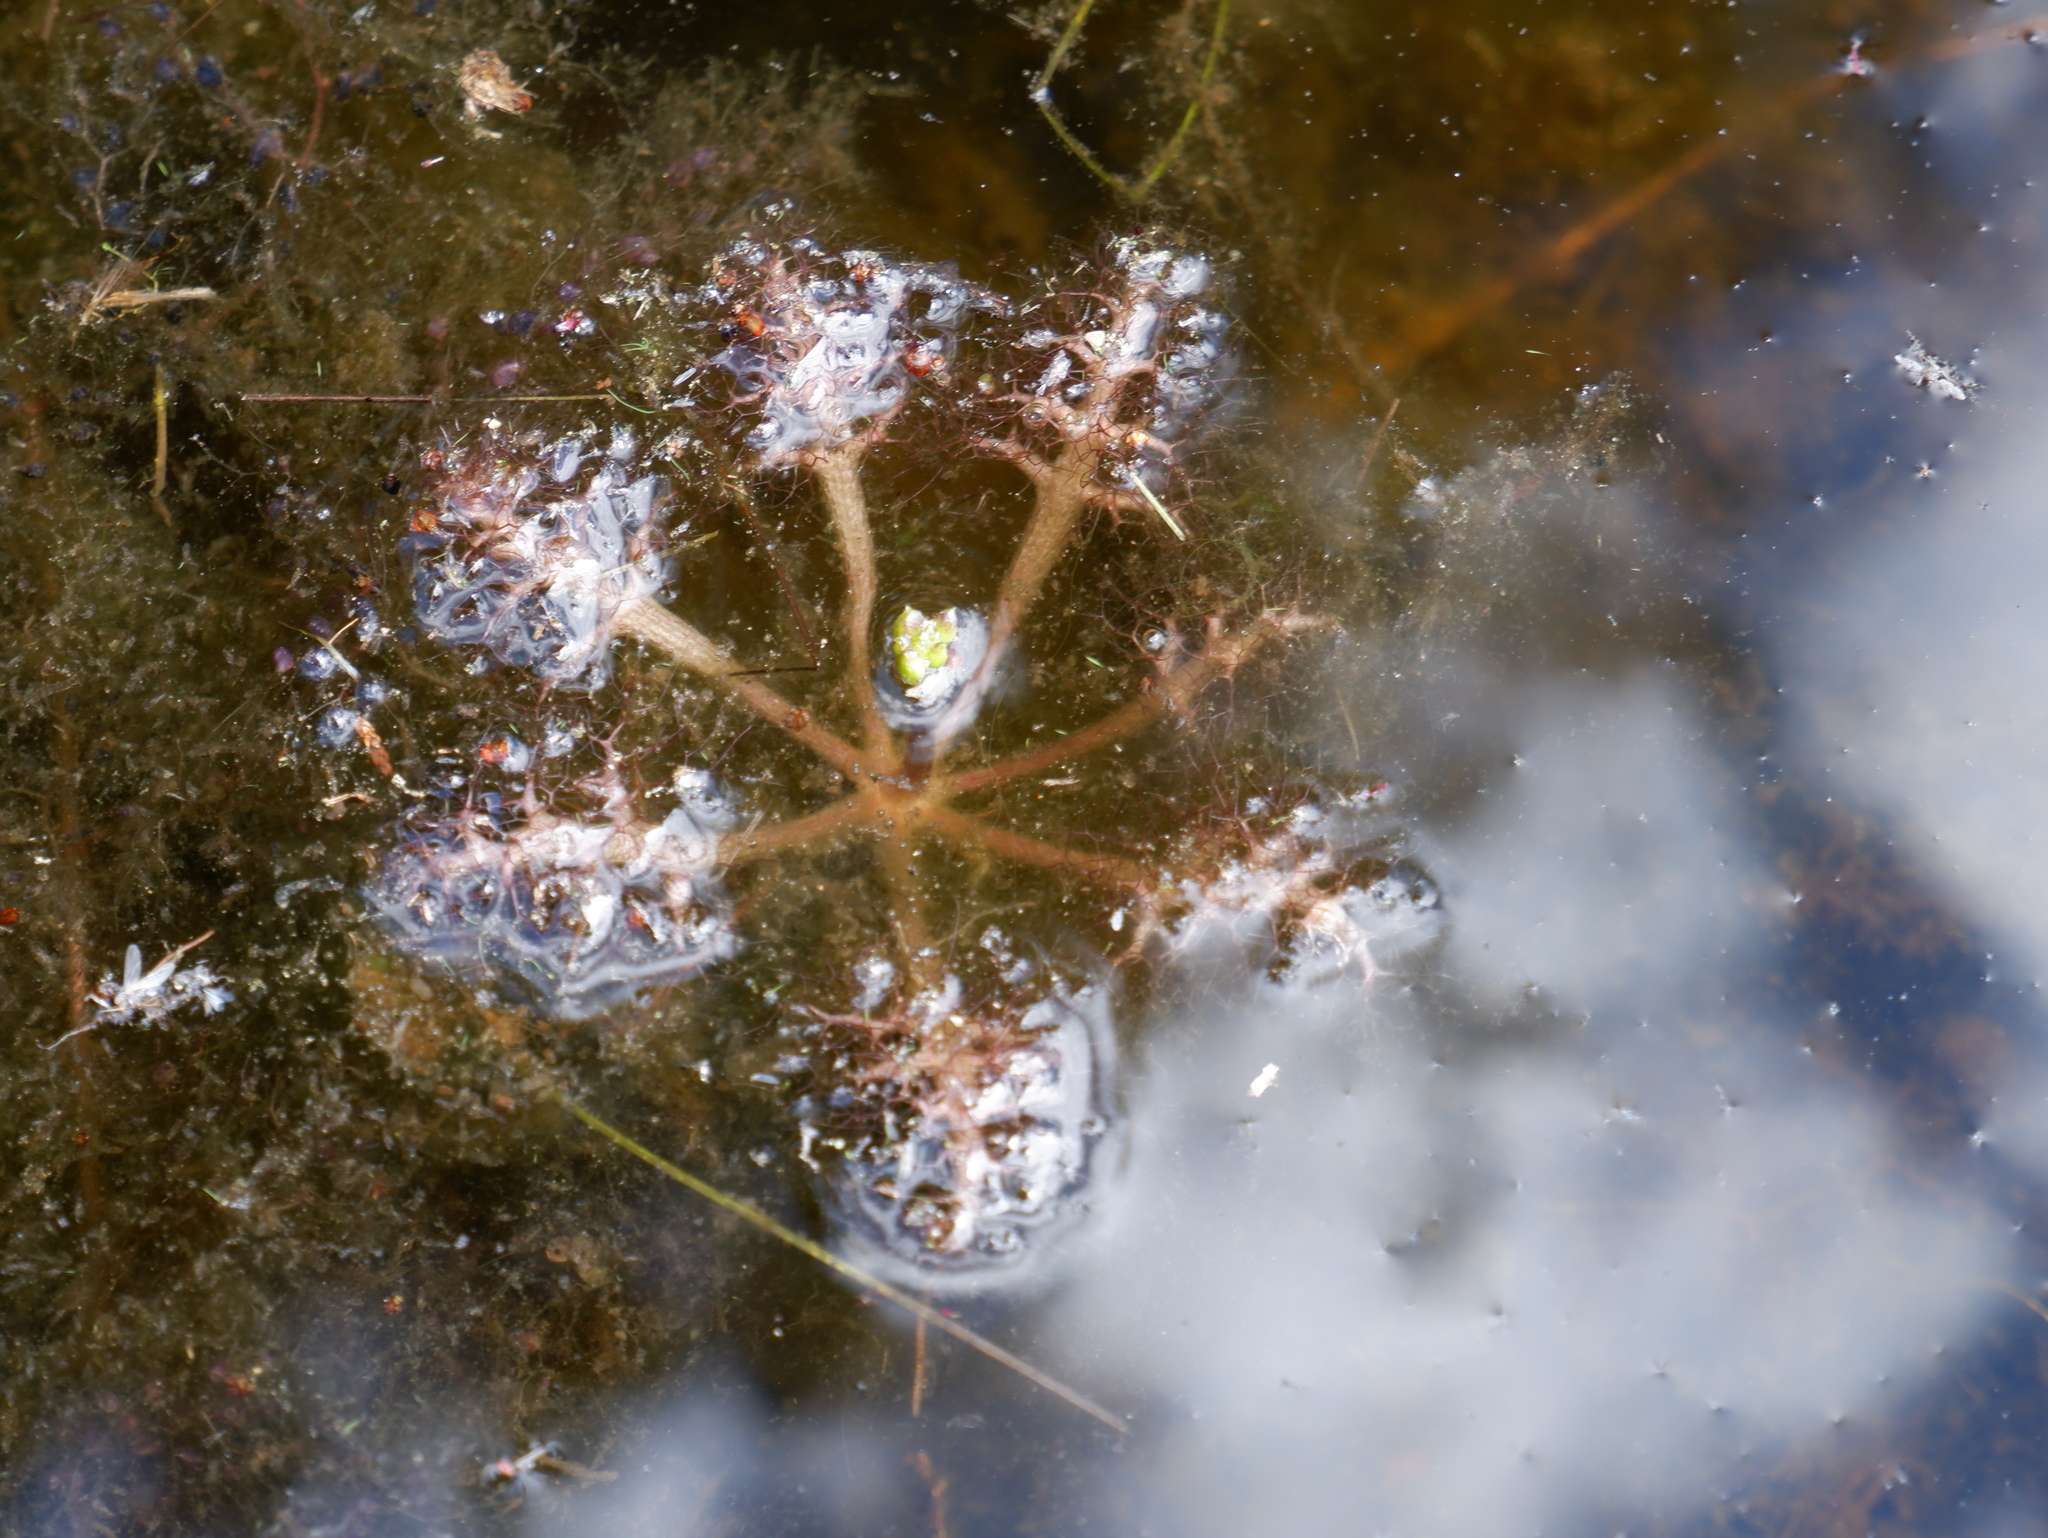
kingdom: Plantae
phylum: Tracheophyta
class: Magnoliopsida
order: Lamiales
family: Lentibulariaceae
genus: Utricularia
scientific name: Utricularia inflata
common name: Floating bladderwort
